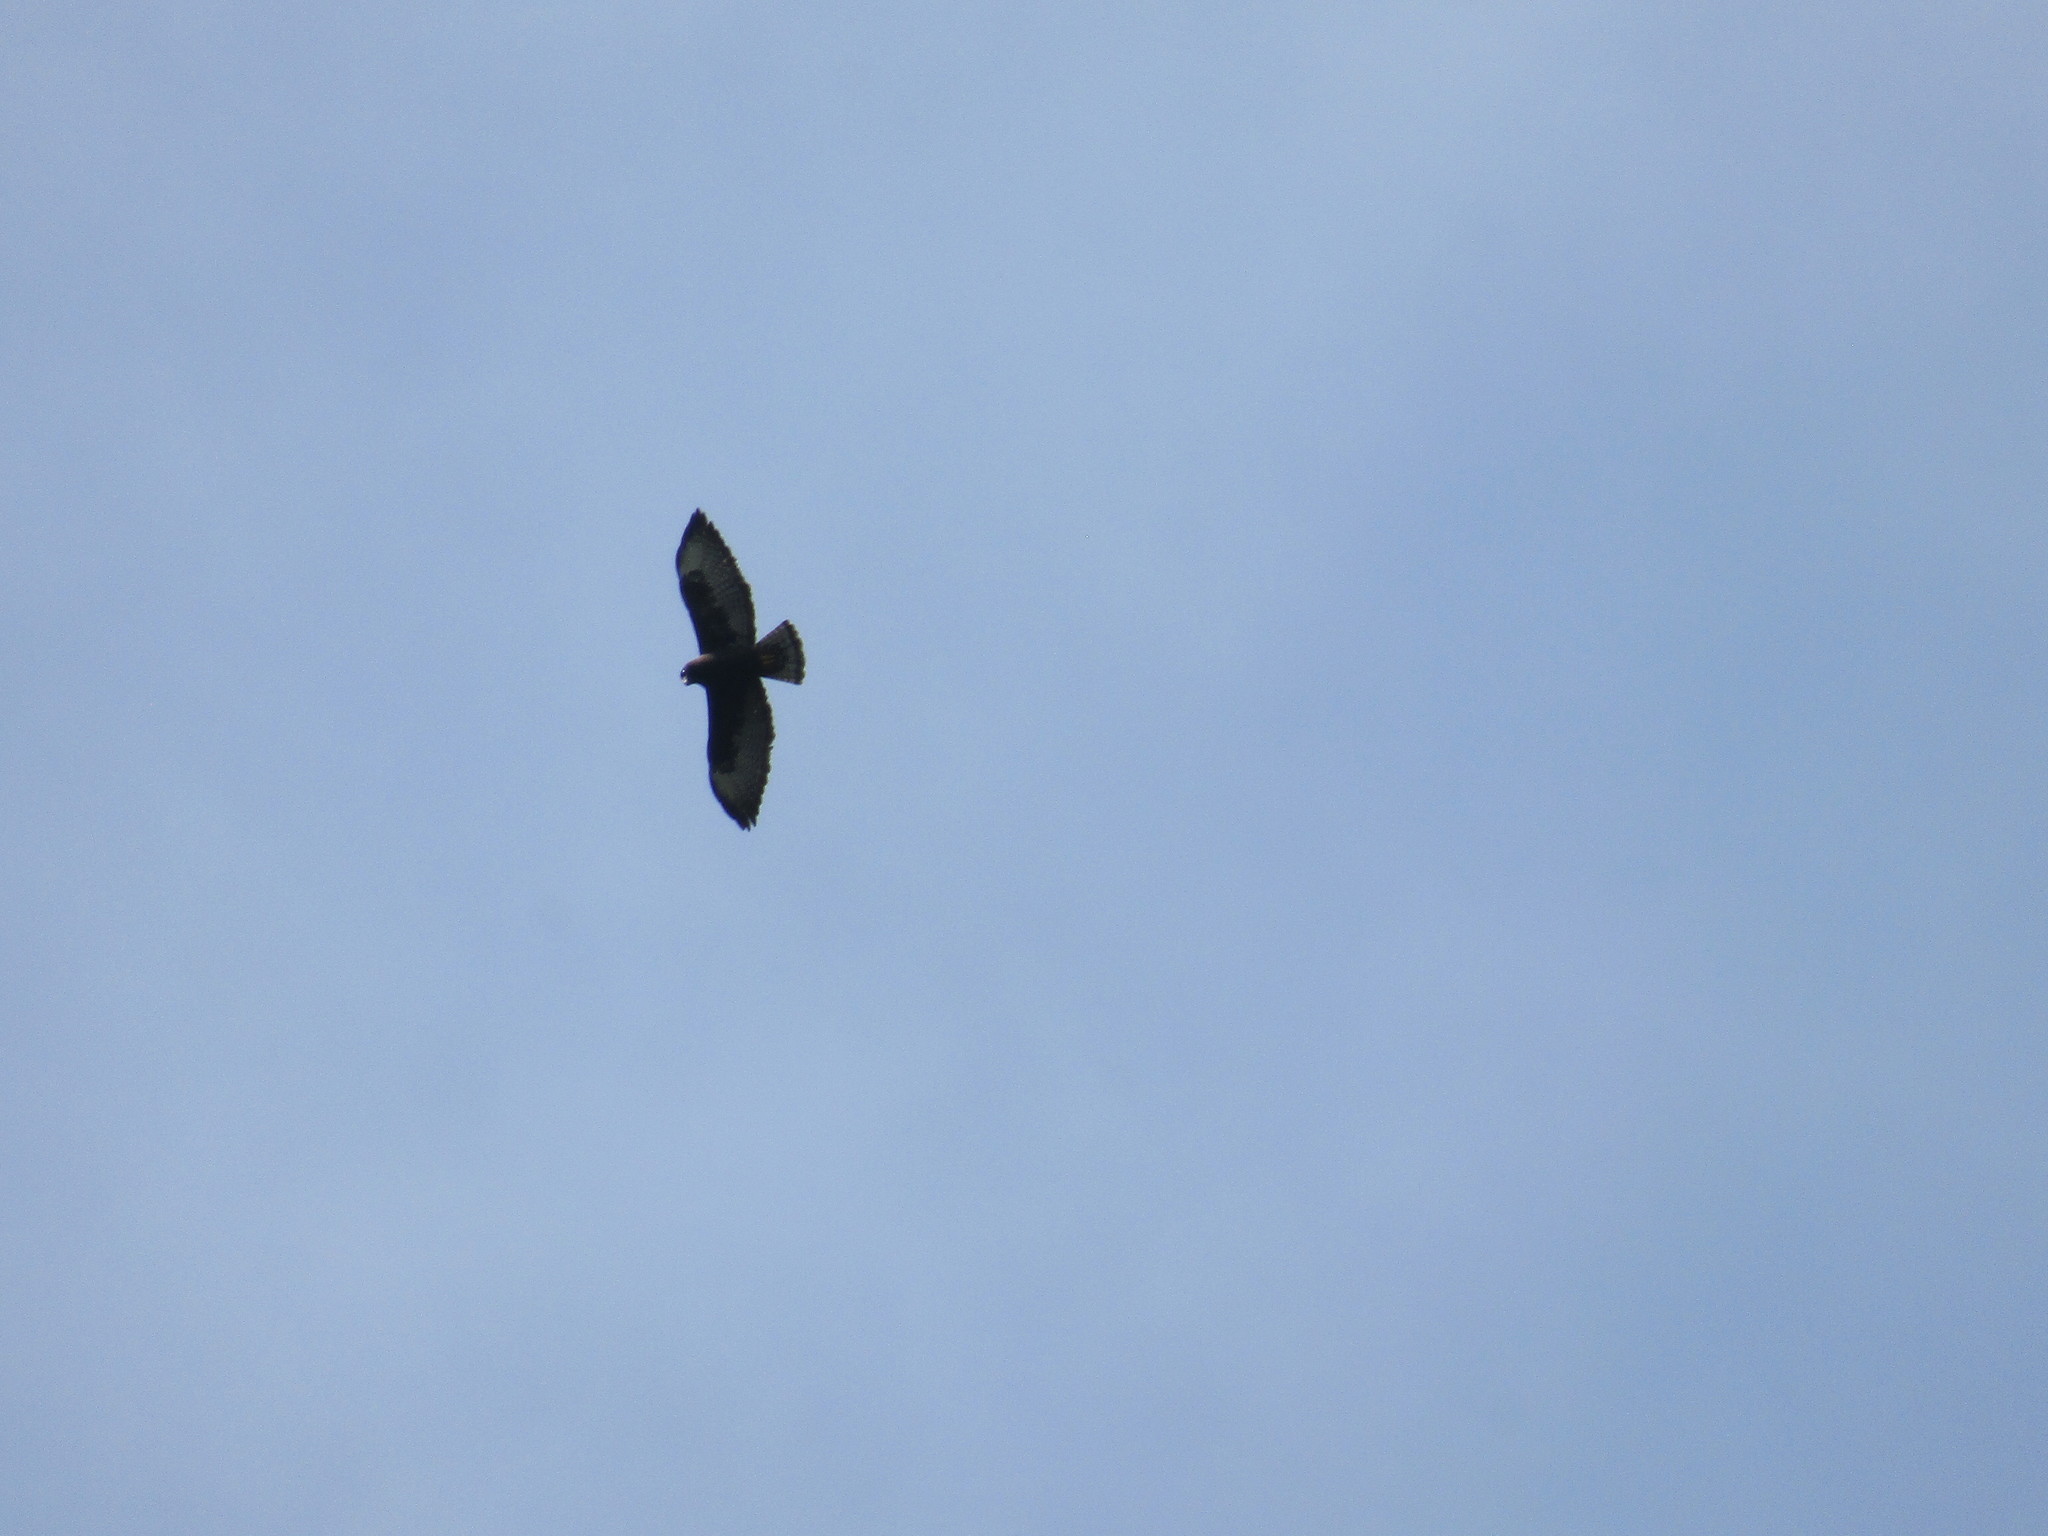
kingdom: Animalia
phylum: Chordata
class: Aves
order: Accipitriformes
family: Accipitridae
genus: Buteo
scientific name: Buteo brachyurus
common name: Short-tailed hawk
